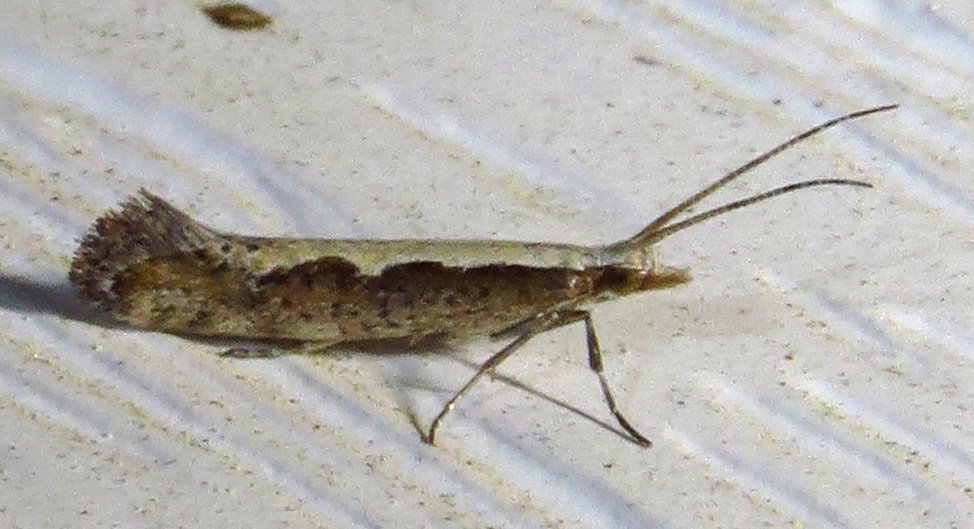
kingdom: Animalia
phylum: Arthropoda
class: Insecta
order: Lepidoptera
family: Plutellidae
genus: Plutella
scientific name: Plutella xylostella
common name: Diamond-back moth
